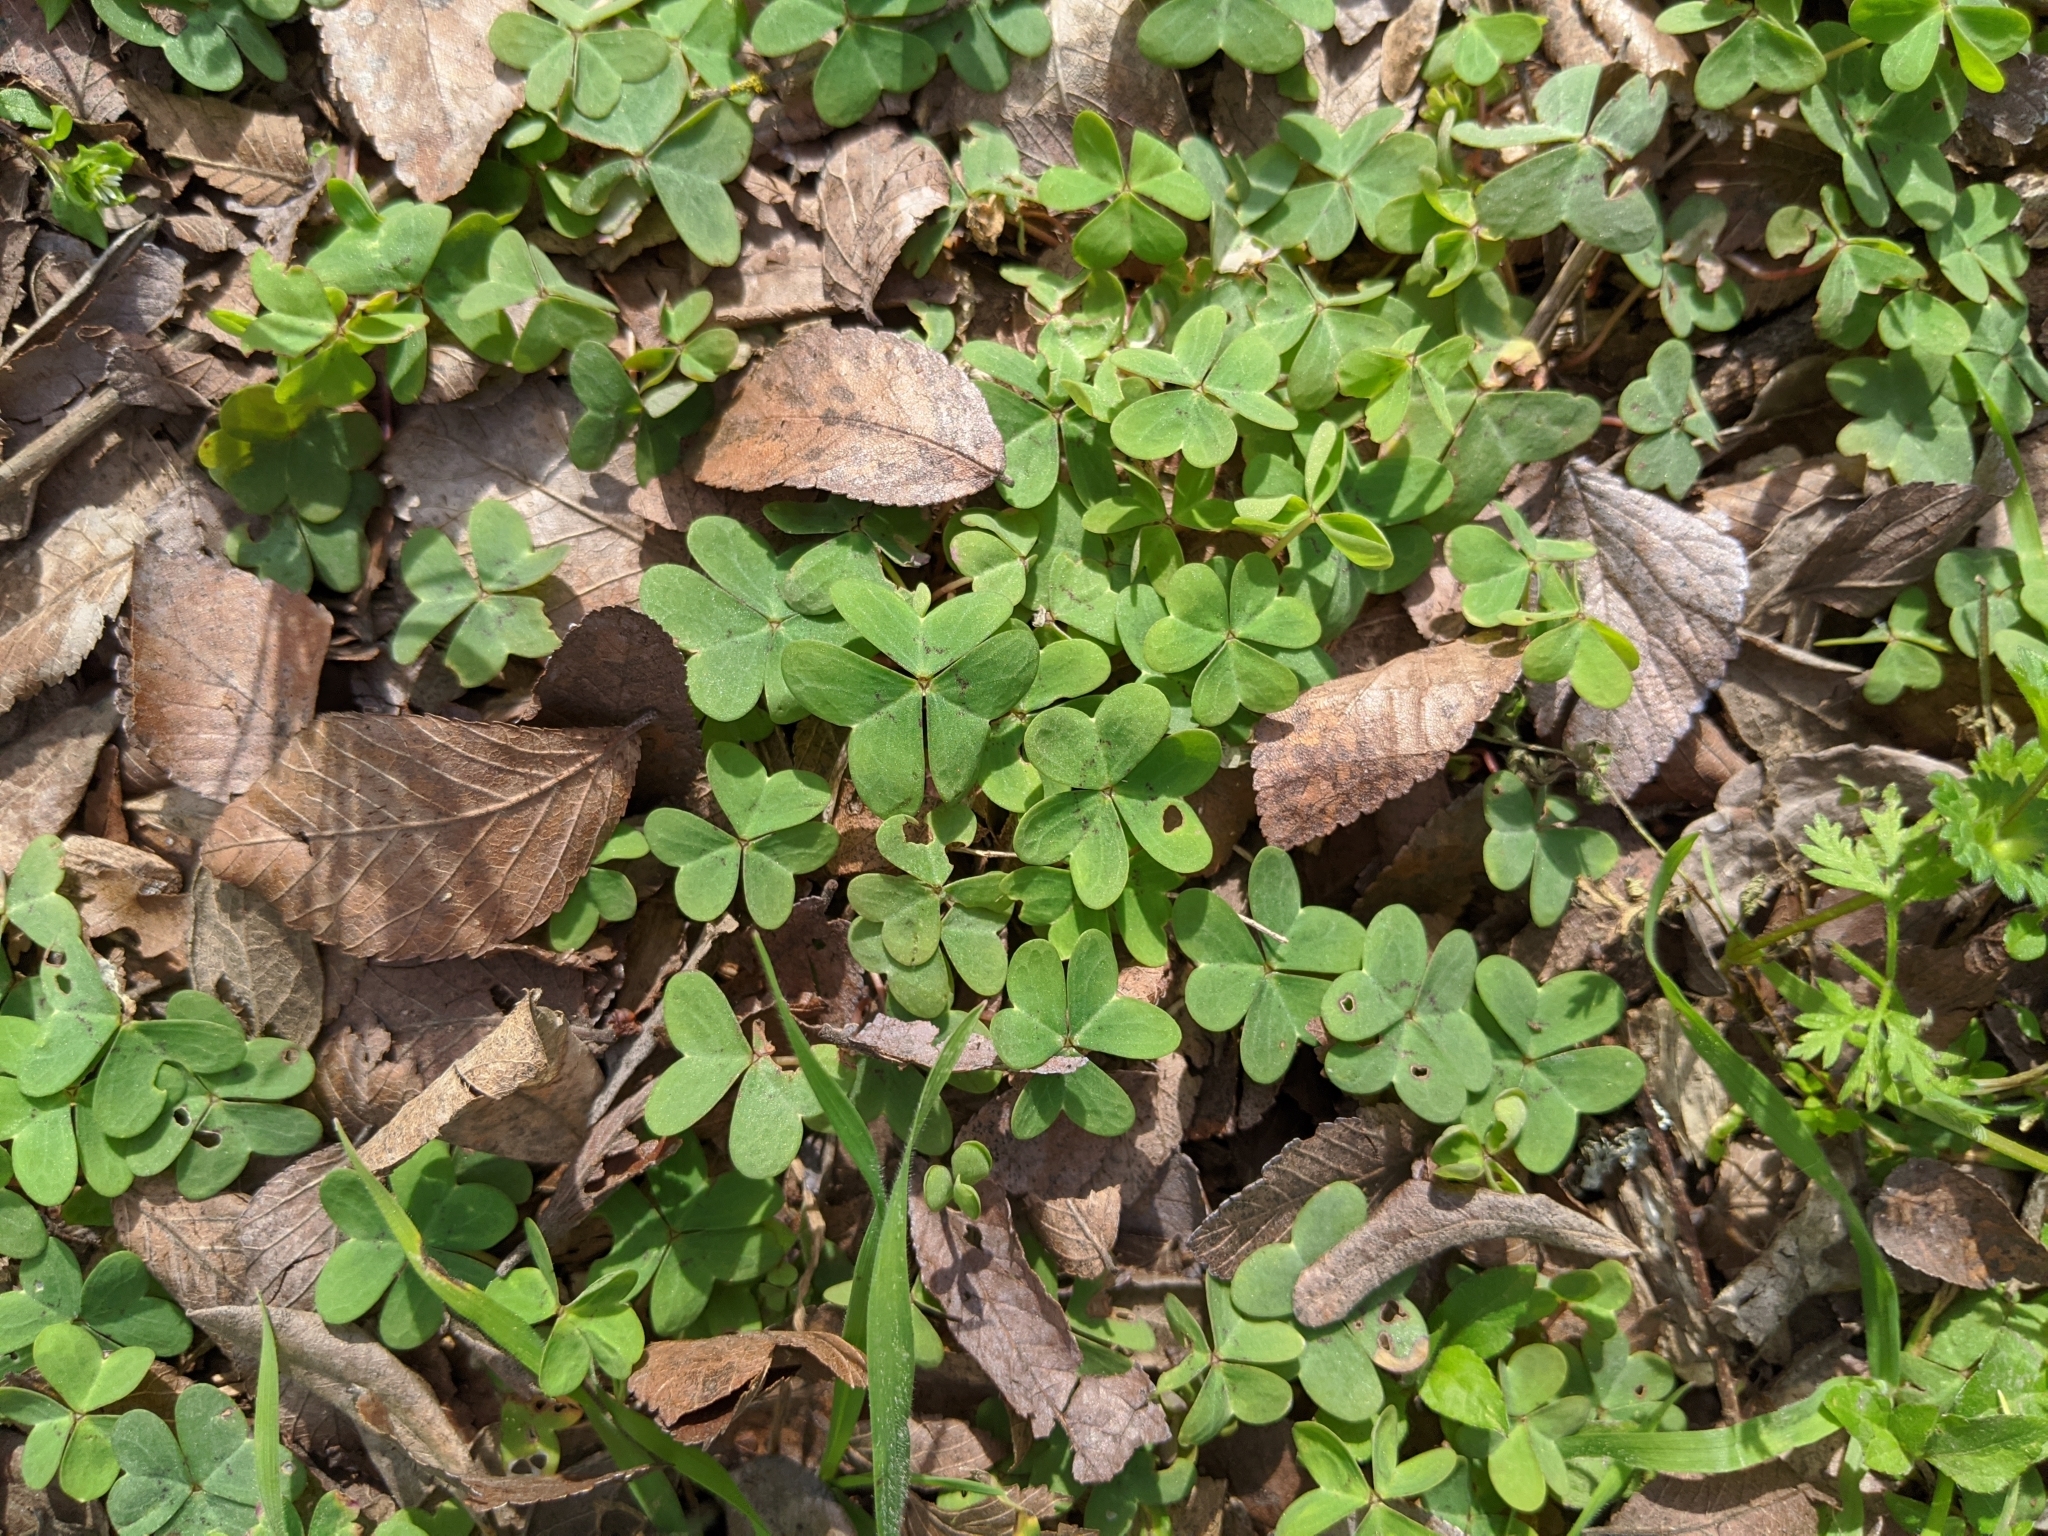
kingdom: Plantae
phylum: Tracheophyta
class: Magnoliopsida
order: Oxalidales
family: Oxalidaceae
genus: Oxalis
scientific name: Oxalis drummondii
